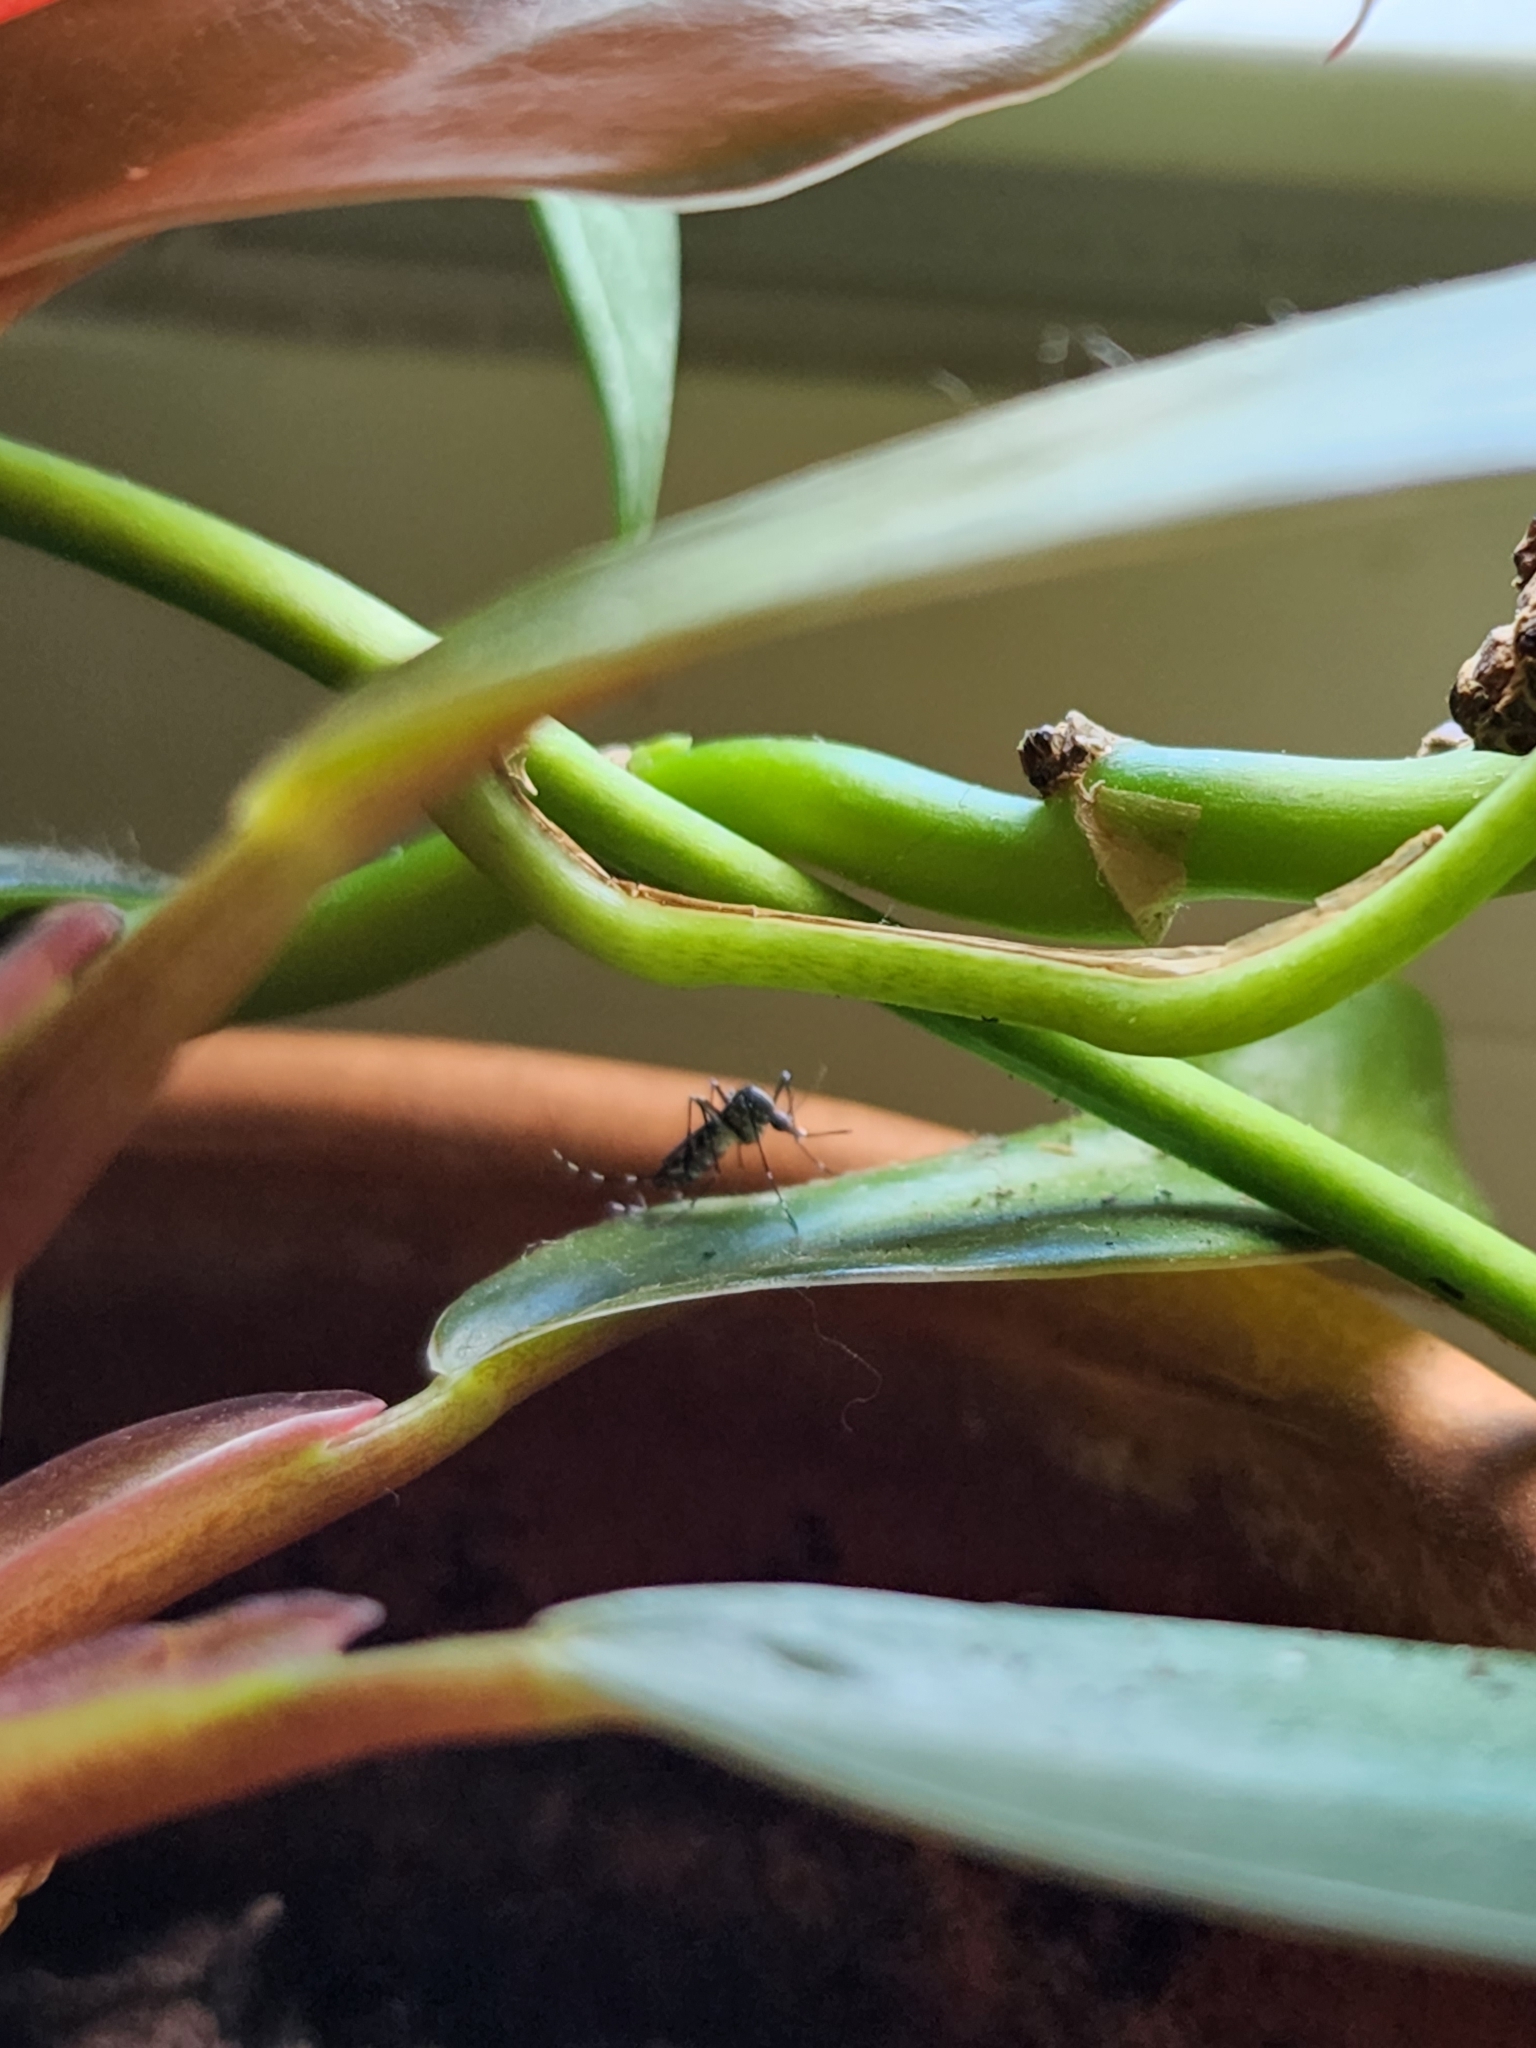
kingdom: Animalia
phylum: Arthropoda
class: Insecta
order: Diptera
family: Culicidae
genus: Aedes
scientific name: Aedes albopictus
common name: Tiger mosquito
